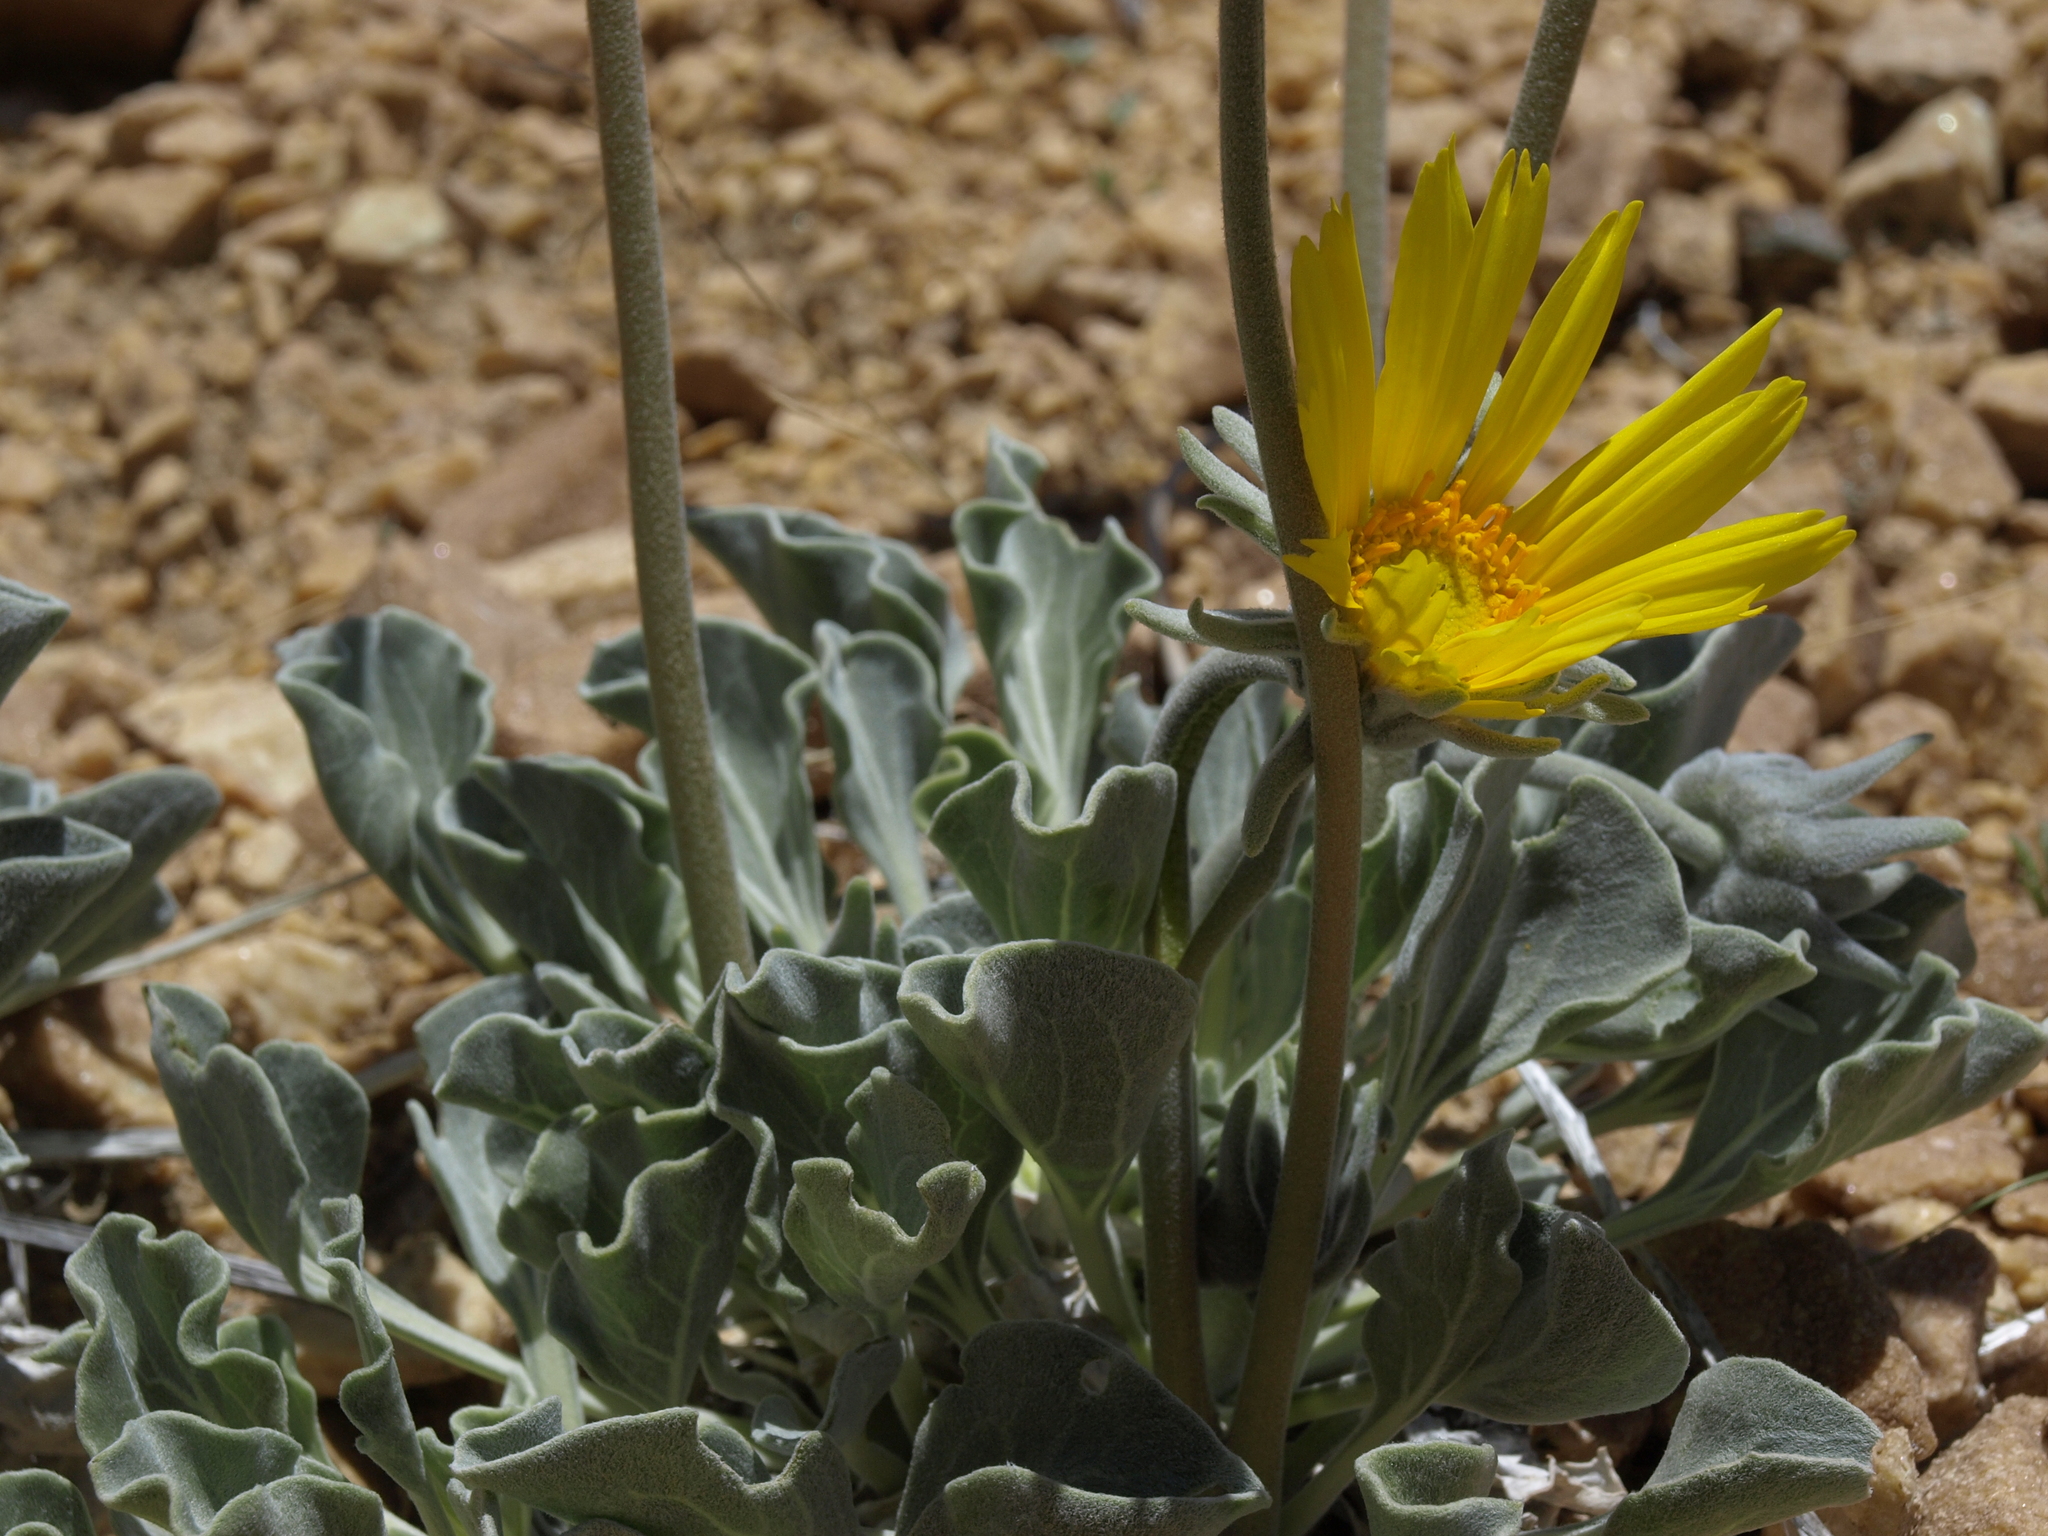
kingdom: Plantae
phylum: Tracheophyta
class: Magnoliopsida
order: Asterales
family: Asteraceae
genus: Enceliopsis
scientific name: Enceliopsis nudicaulis
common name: Naked-stem daisy
